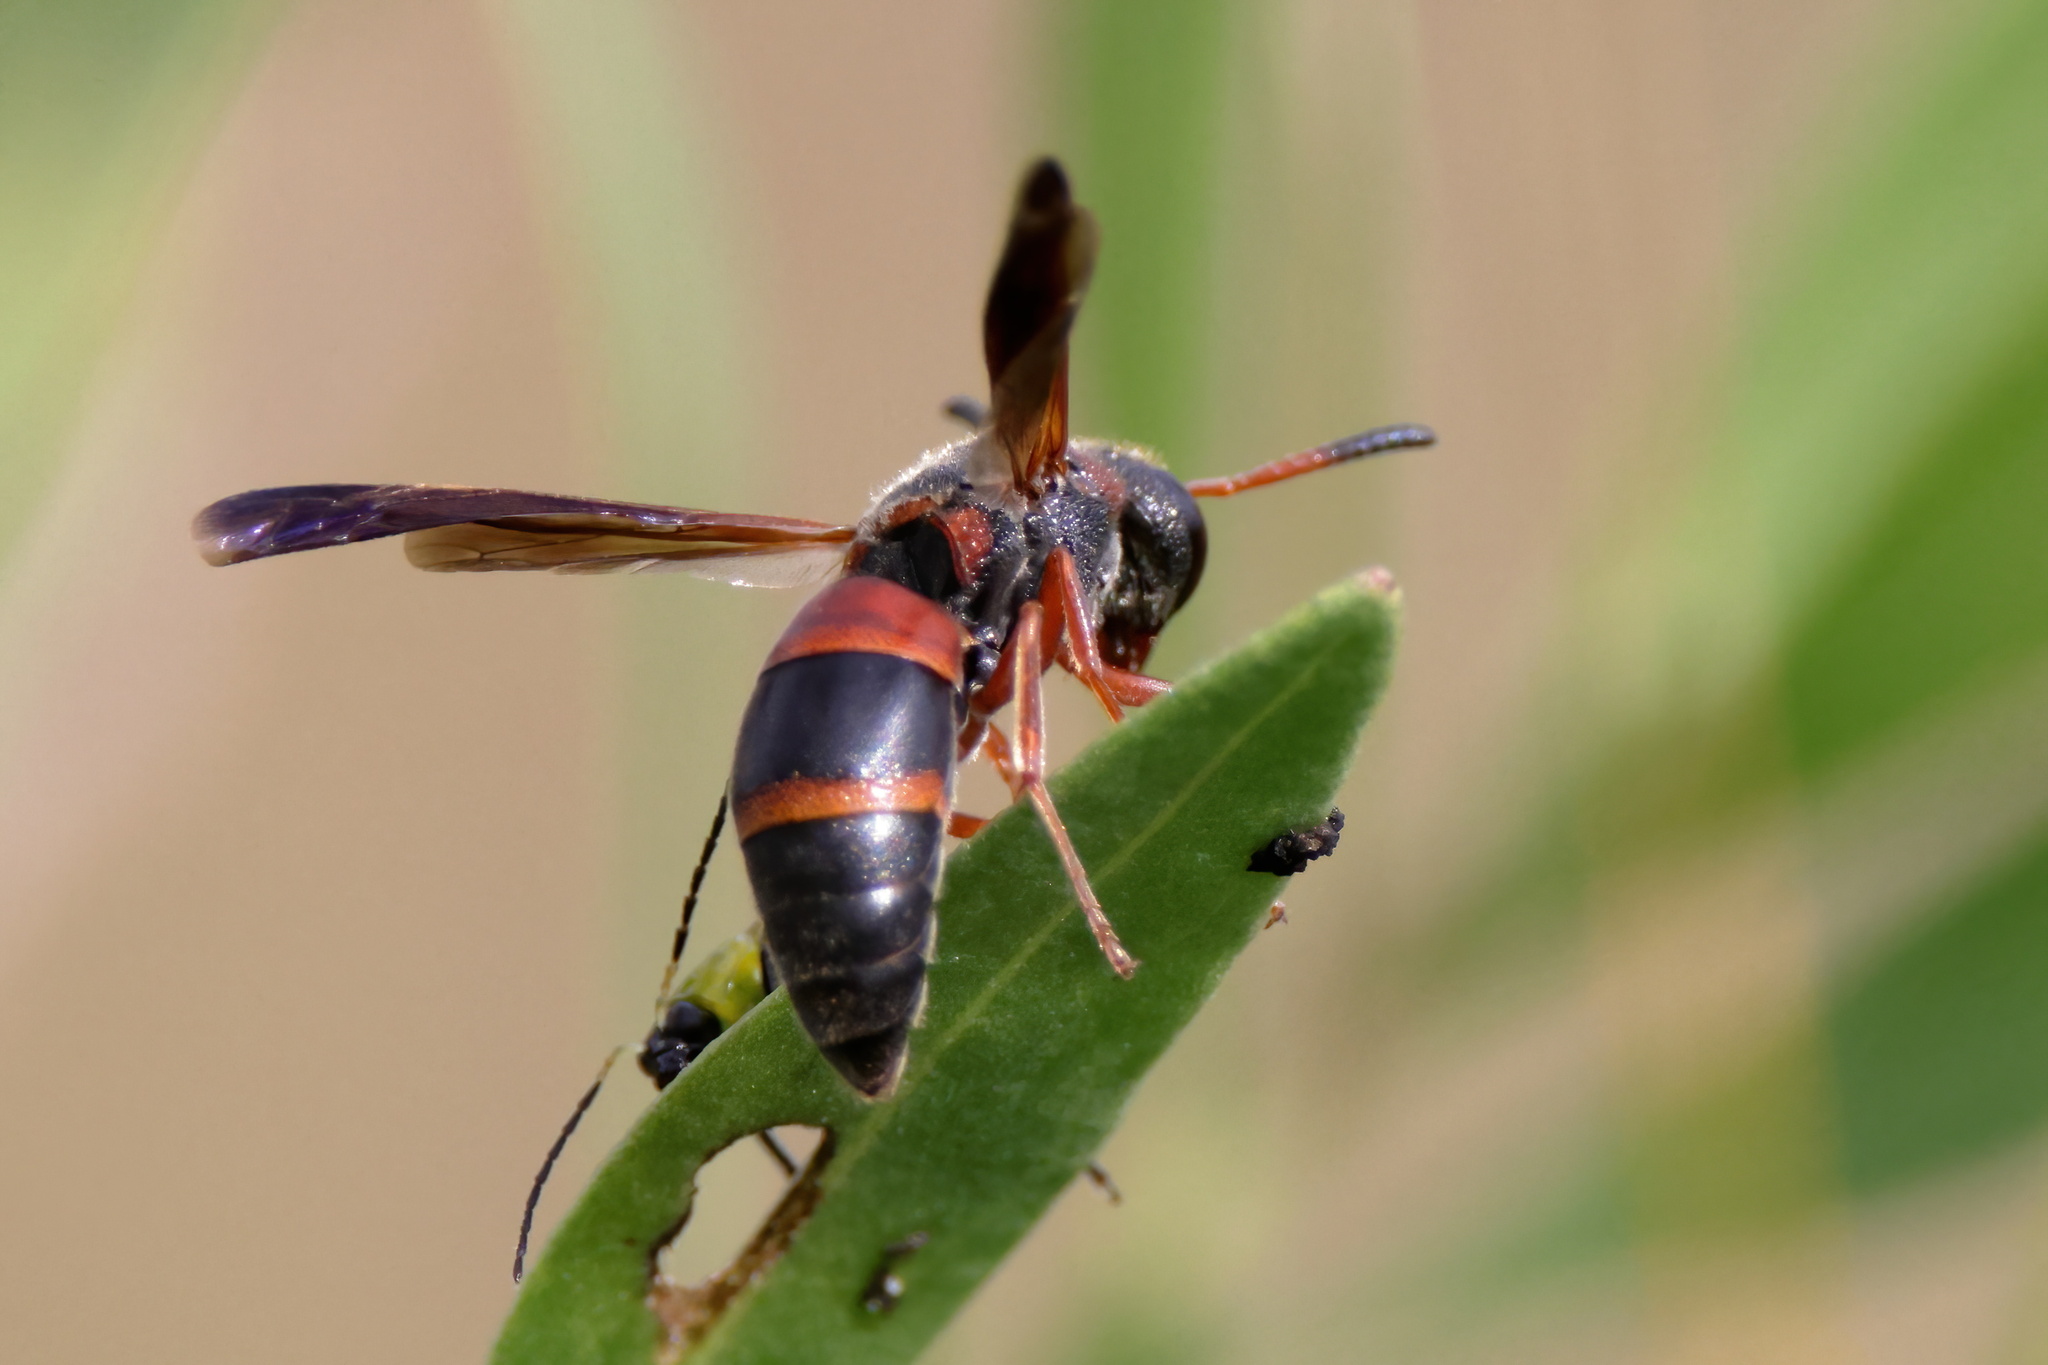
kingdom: Animalia
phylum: Arthropoda
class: Insecta
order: Hymenoptera
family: Eumenidae
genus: Pachodynerus
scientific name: Pachodynerus erynnis
